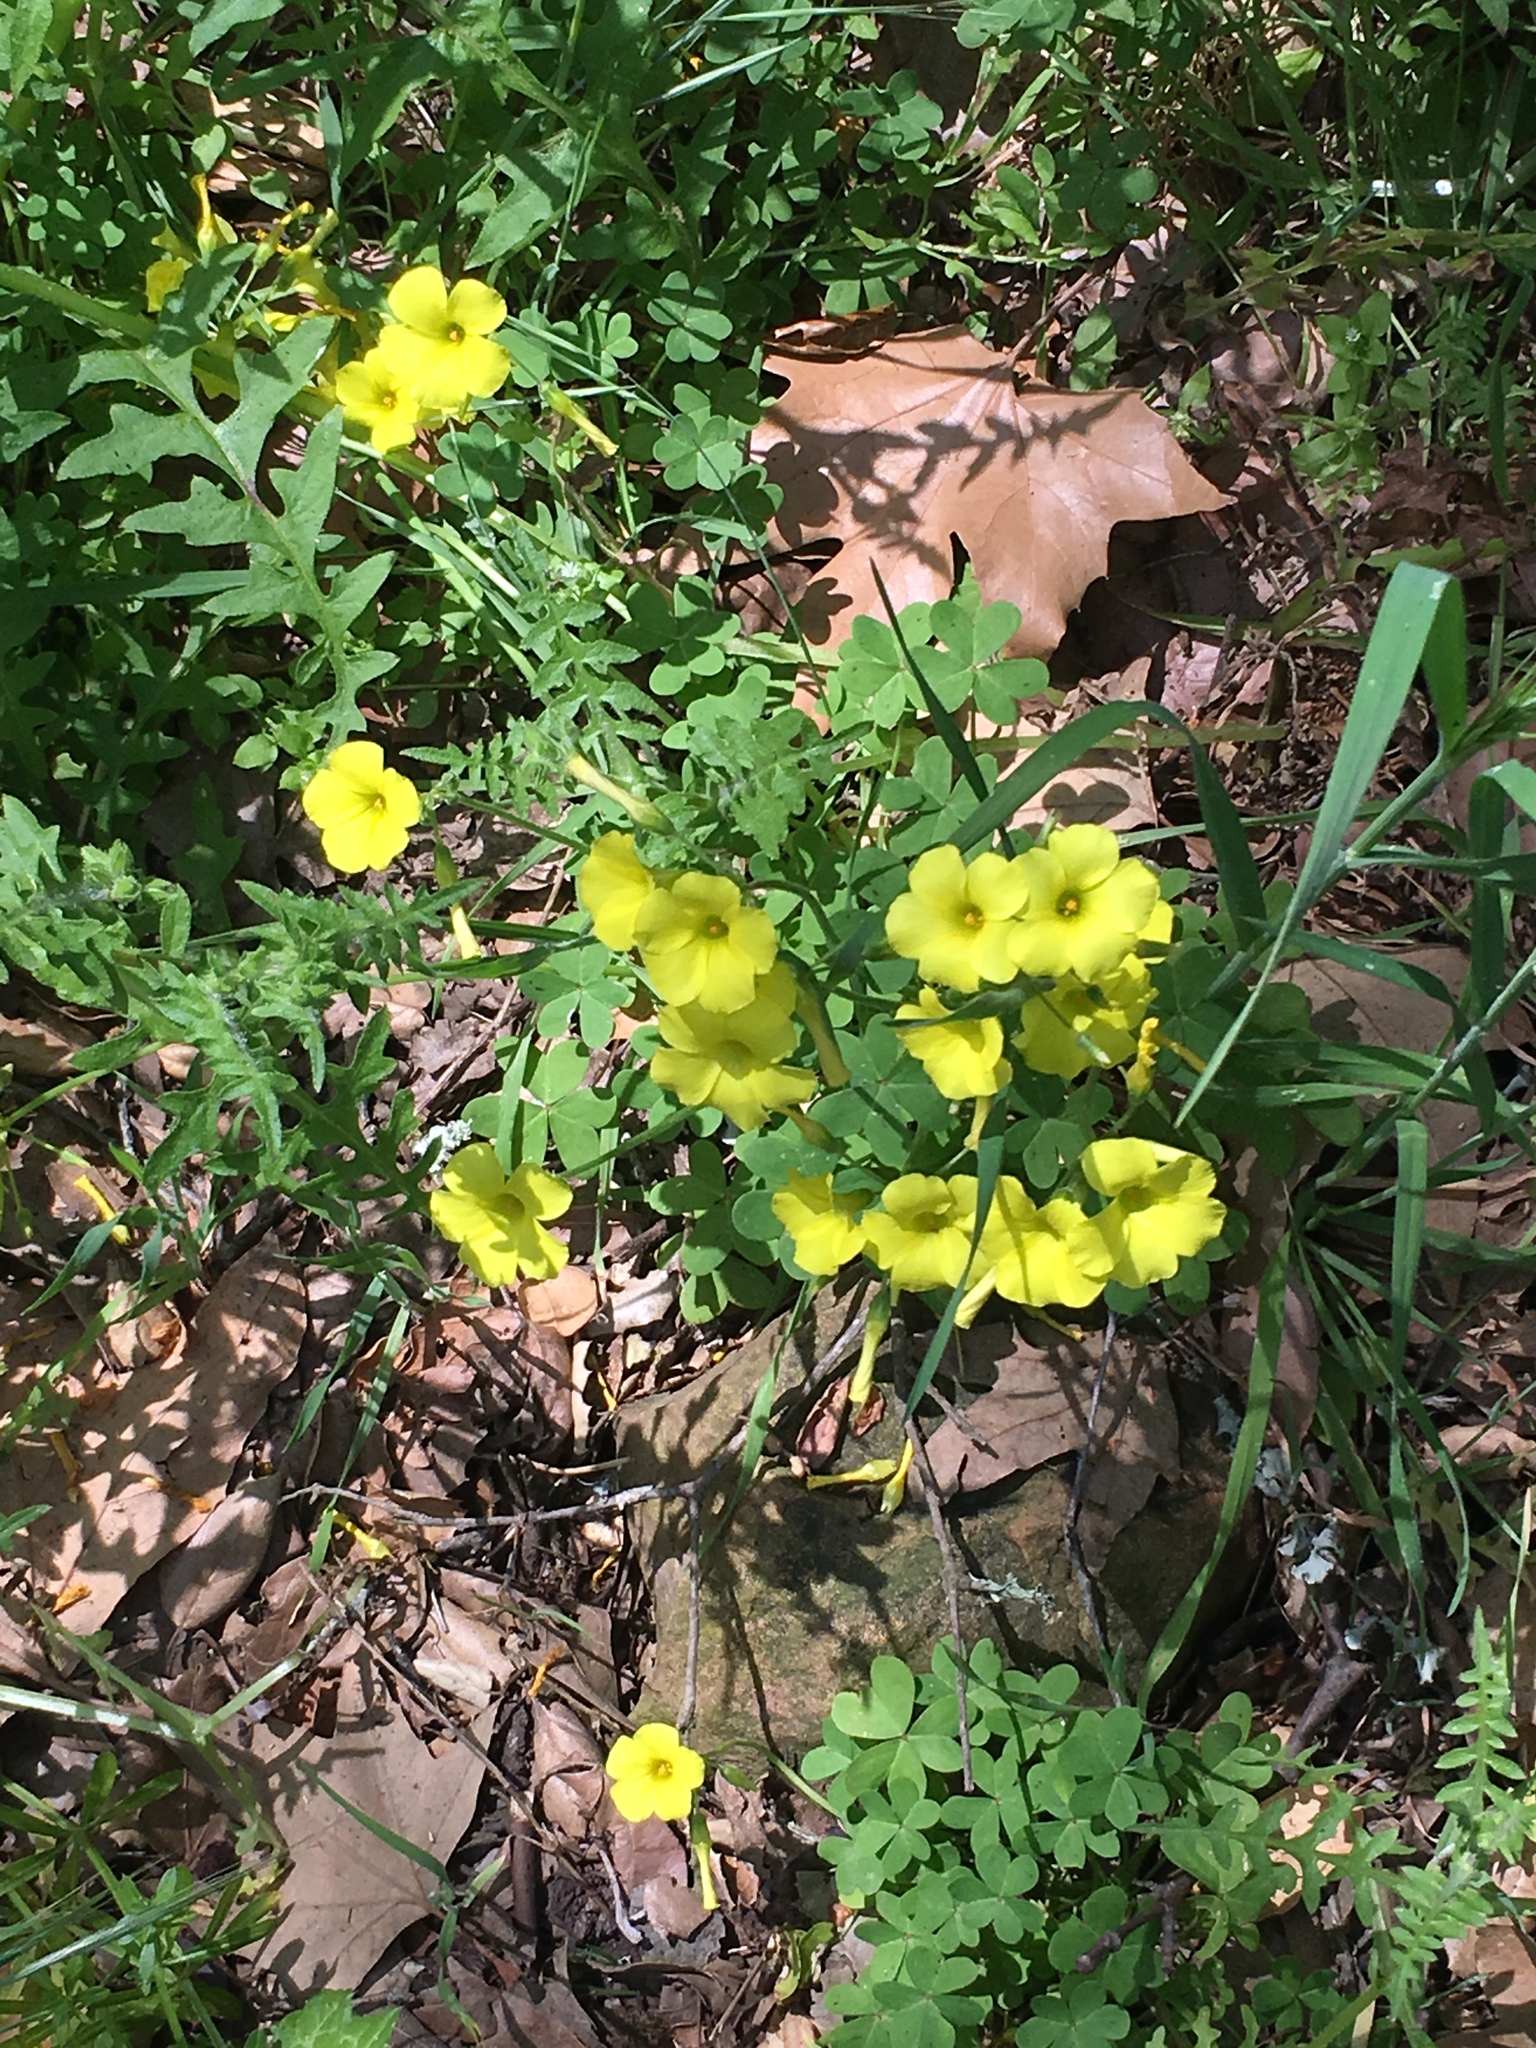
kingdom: Plantae
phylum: Tracheophyta
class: Magnoliopsida
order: Oxalidales
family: Oxalidaceae
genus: Oxalis
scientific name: Oxalis pes-caprae
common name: Bermuda-buttercup
